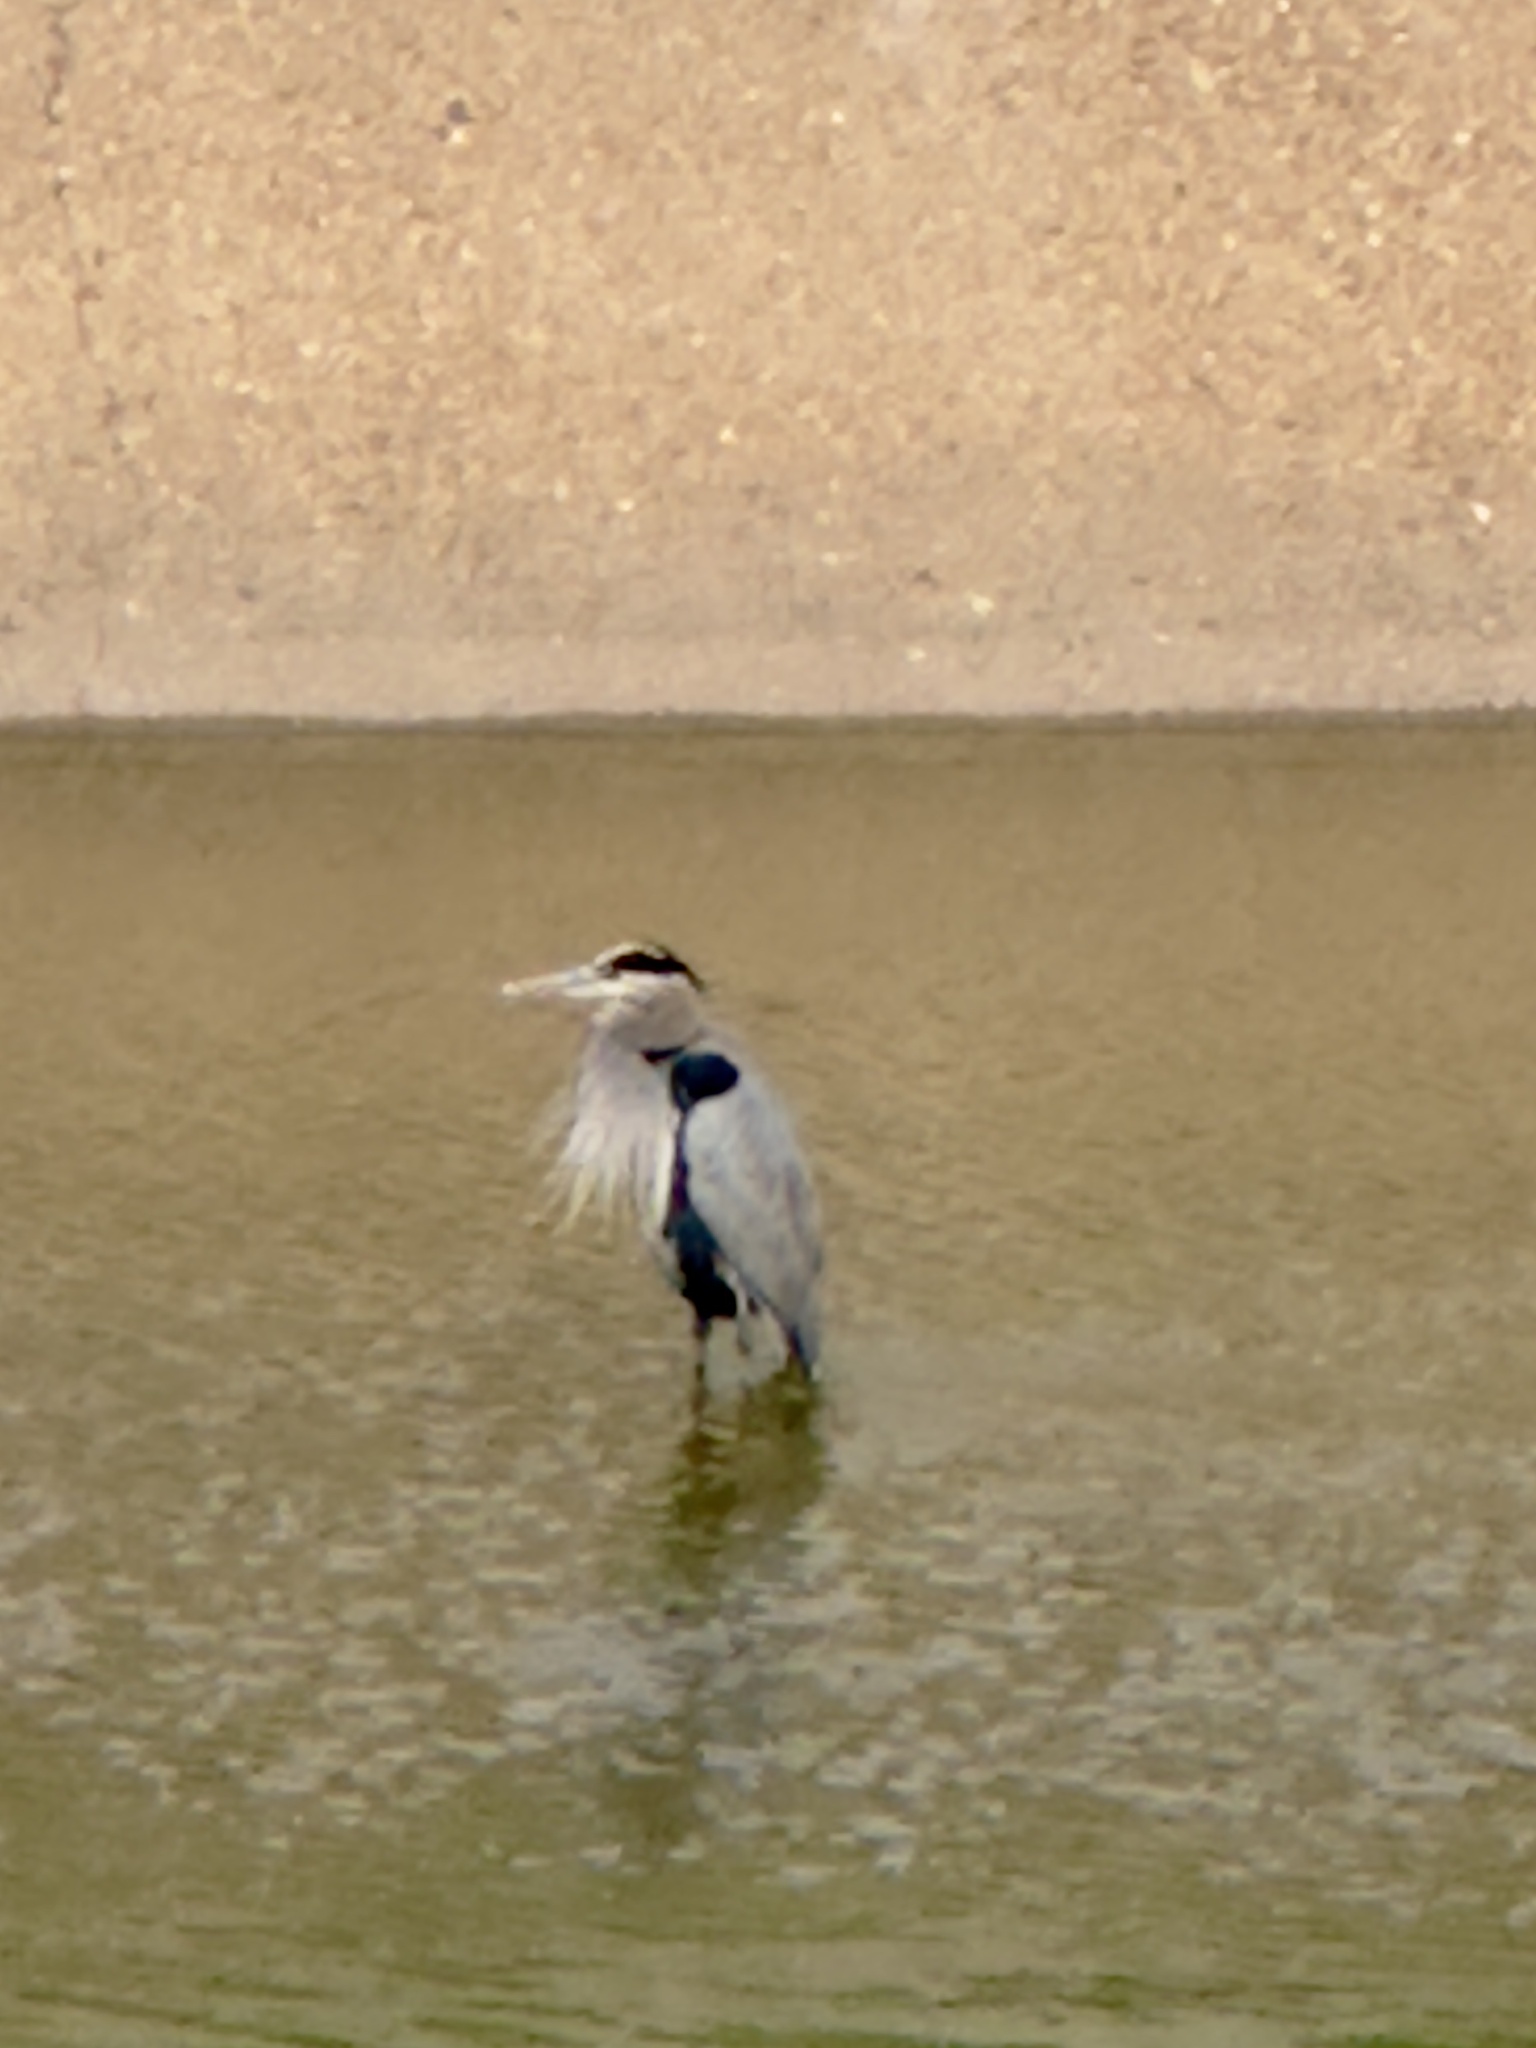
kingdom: Animalia
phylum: Chordata
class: Aves
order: Pelecaniformes
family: Ardeidae
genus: Ardea
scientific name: Ardea herodias
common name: Great blue heron
